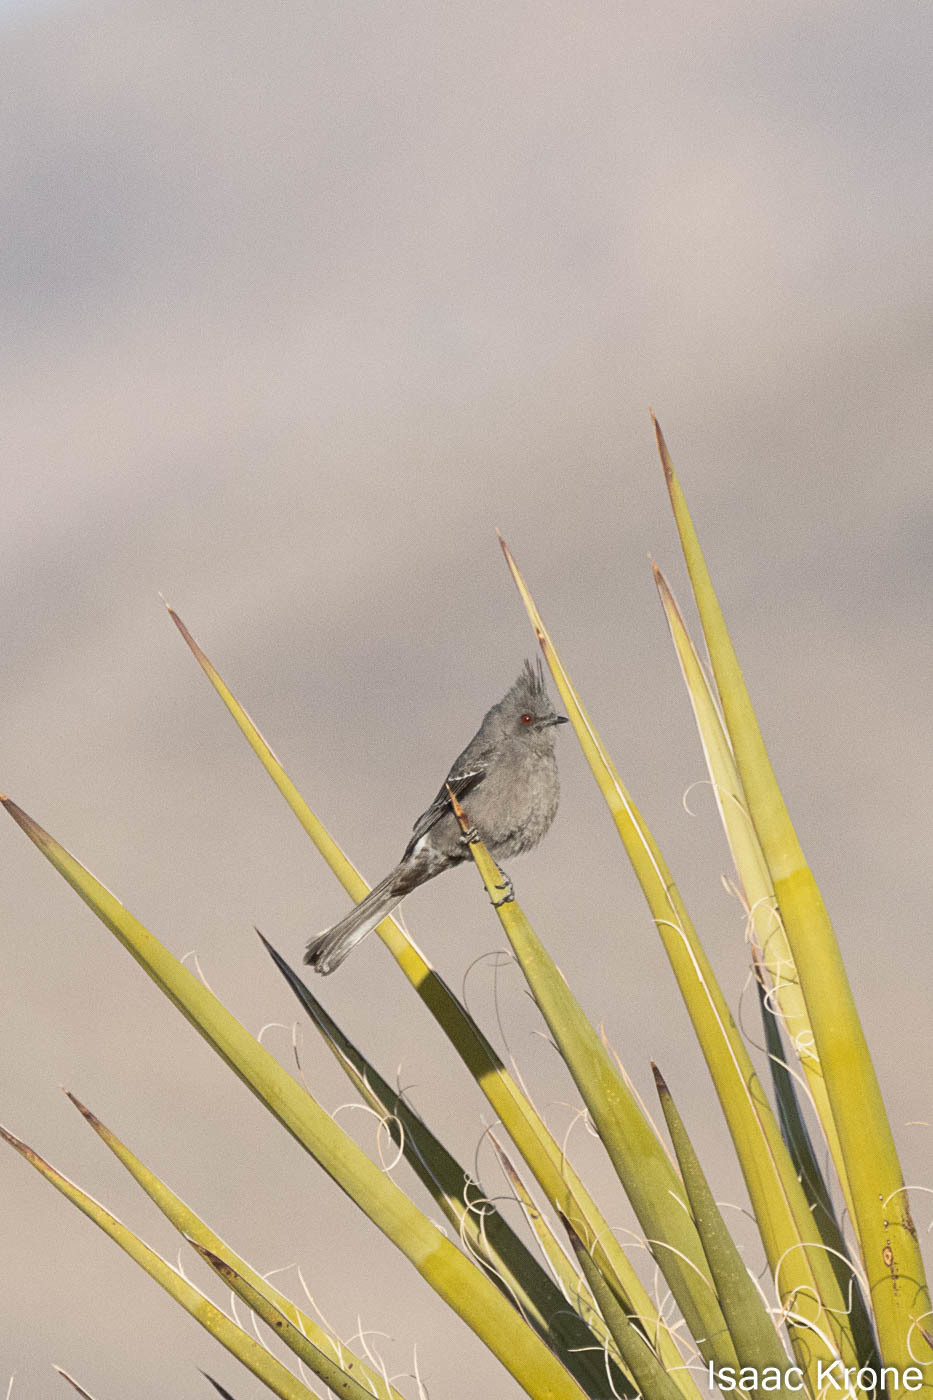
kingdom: Animalia
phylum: Chordata
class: Aves
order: Passeriformes
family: Ptilogonatidae
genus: Phainopepla
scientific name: Phainopepla nitens
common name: Phainopepla
